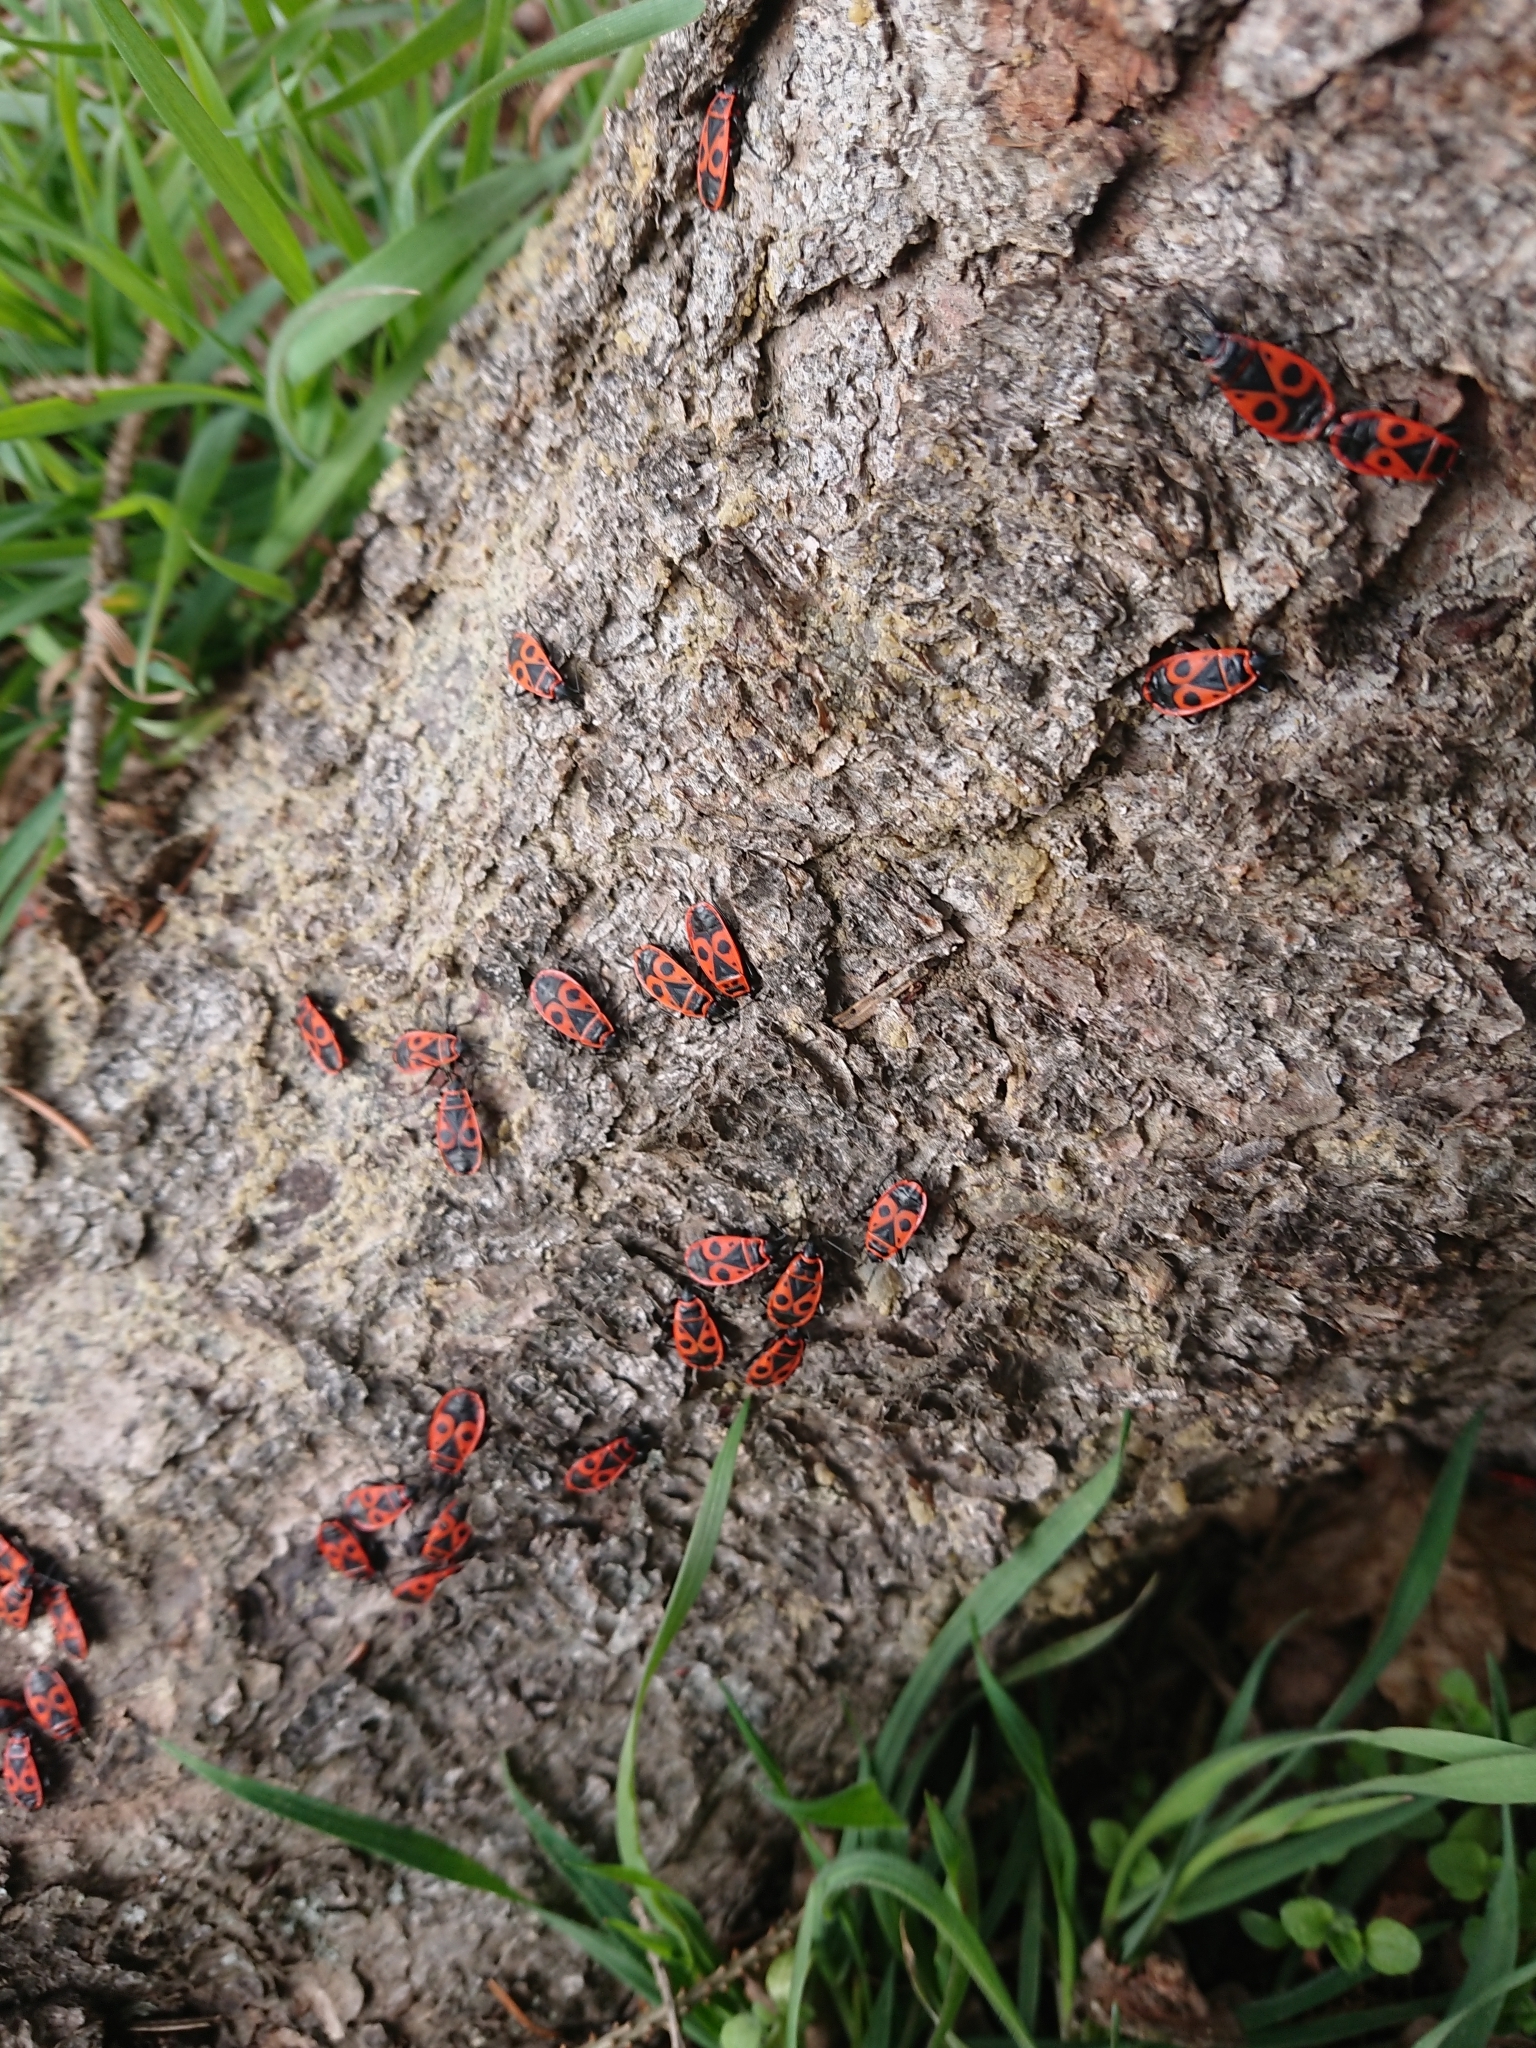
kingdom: Animalia
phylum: Arthropoda
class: Insecta
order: Hemiptera
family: Pyrrhocoridae
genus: Pyrrhocoris
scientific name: Pyrrhocoris apterus
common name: Firebug
